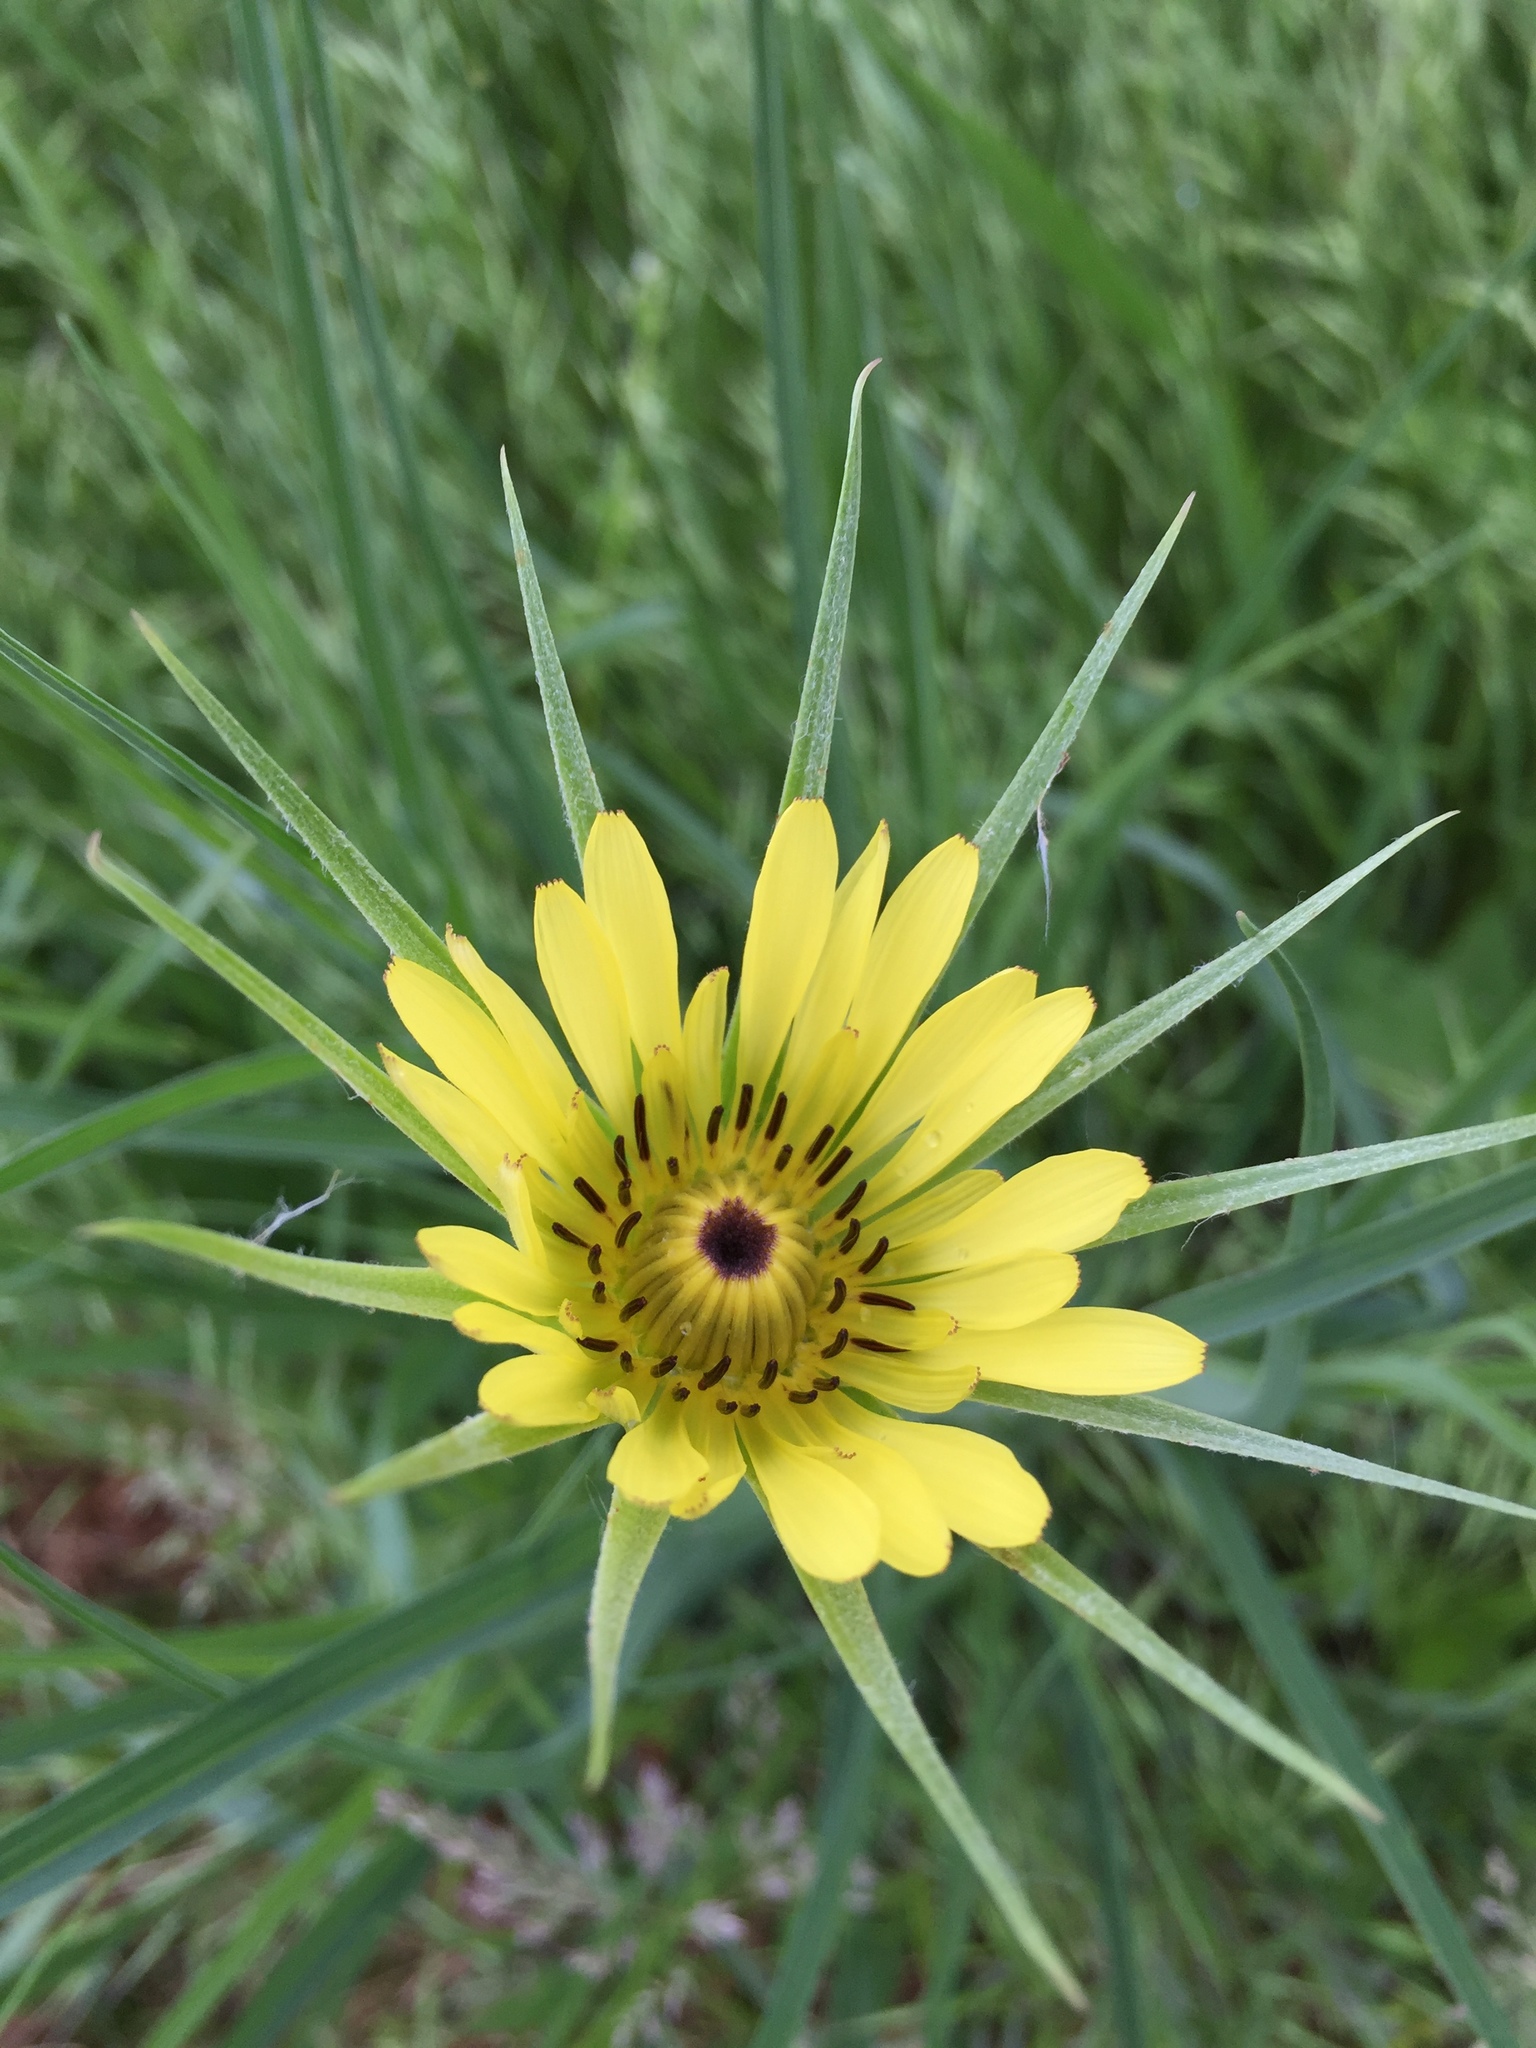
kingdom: Plantae
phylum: Tracheophyta
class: Magnoliopsida
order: Asterales
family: Asteraceae
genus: Tragopogon
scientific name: Tragopogon dubius
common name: Yellow salsify
